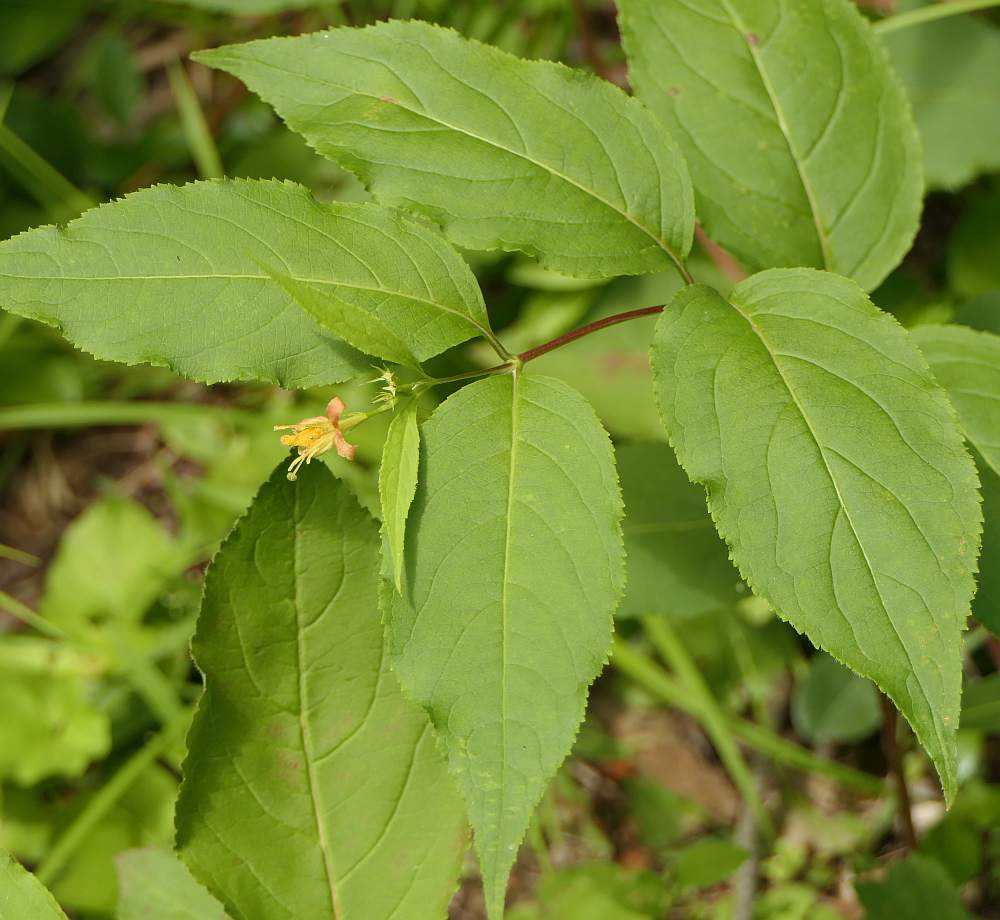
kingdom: Plantae
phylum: Tracheophyta
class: Magnoliopsida
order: Dipsacales
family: Caprifoliaceae
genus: Diervilla
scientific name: Diervilla lonicera
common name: Bush-honeysuckle
